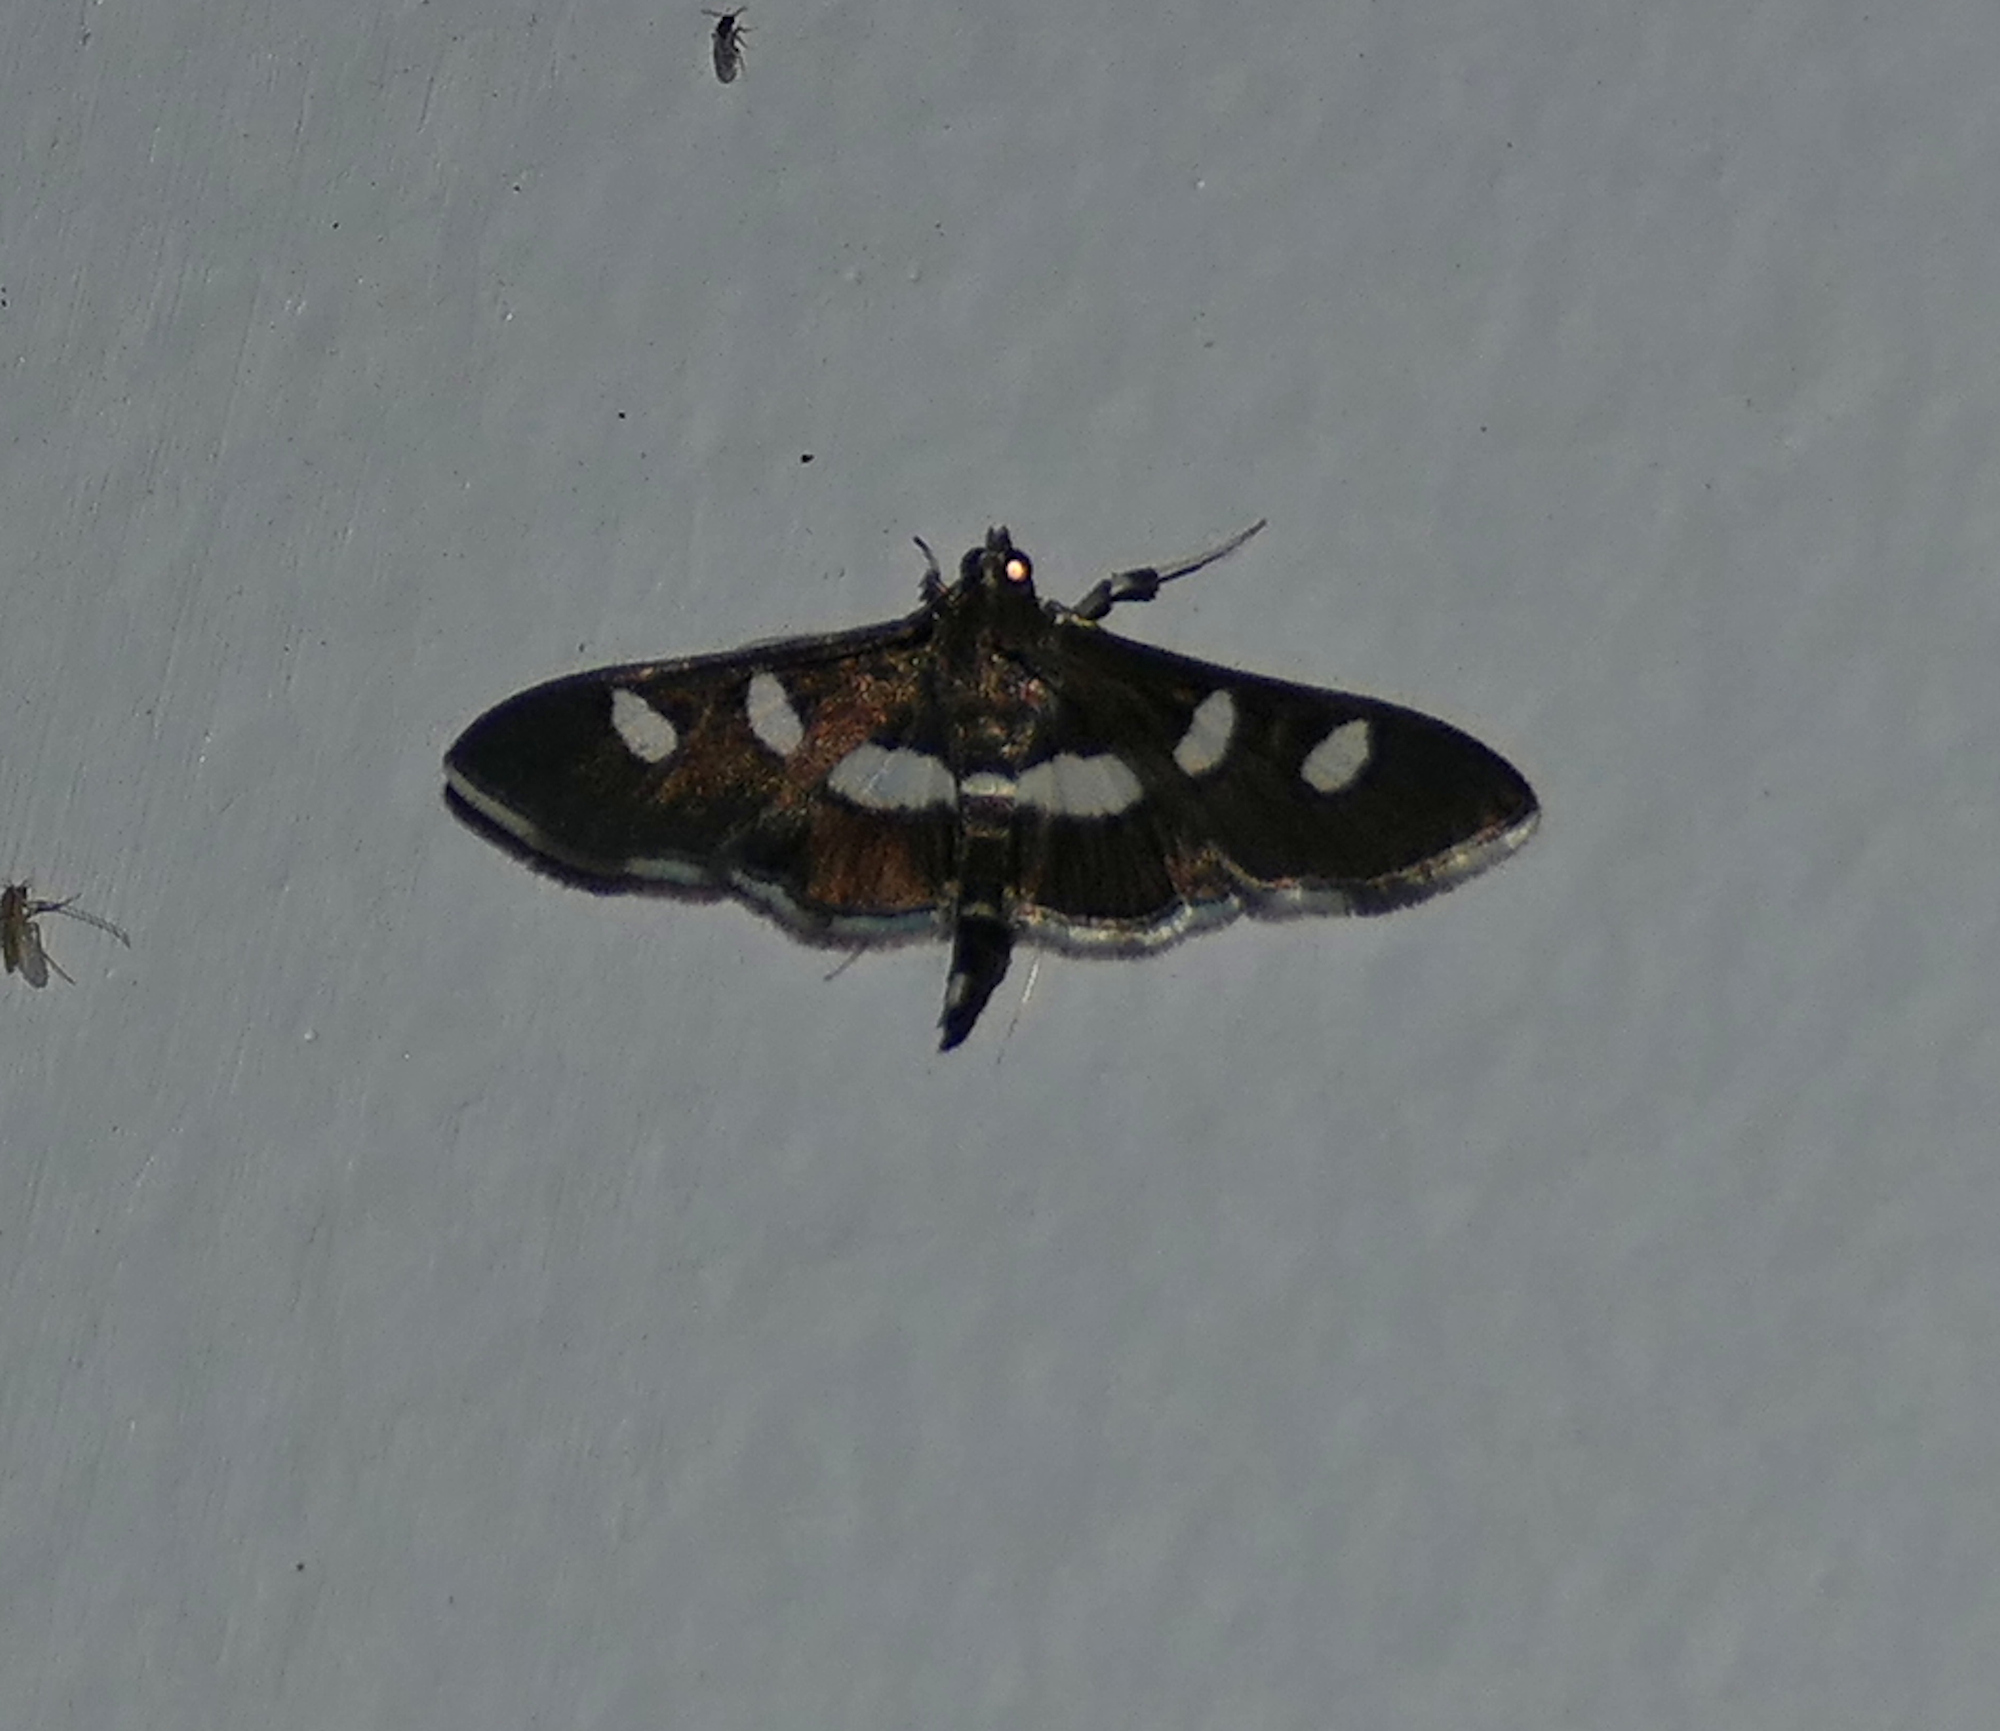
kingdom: Animalia
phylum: Arthropoda
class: Insecta
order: Lepidoptera
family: Crambidae
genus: Desmia
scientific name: Desmia
